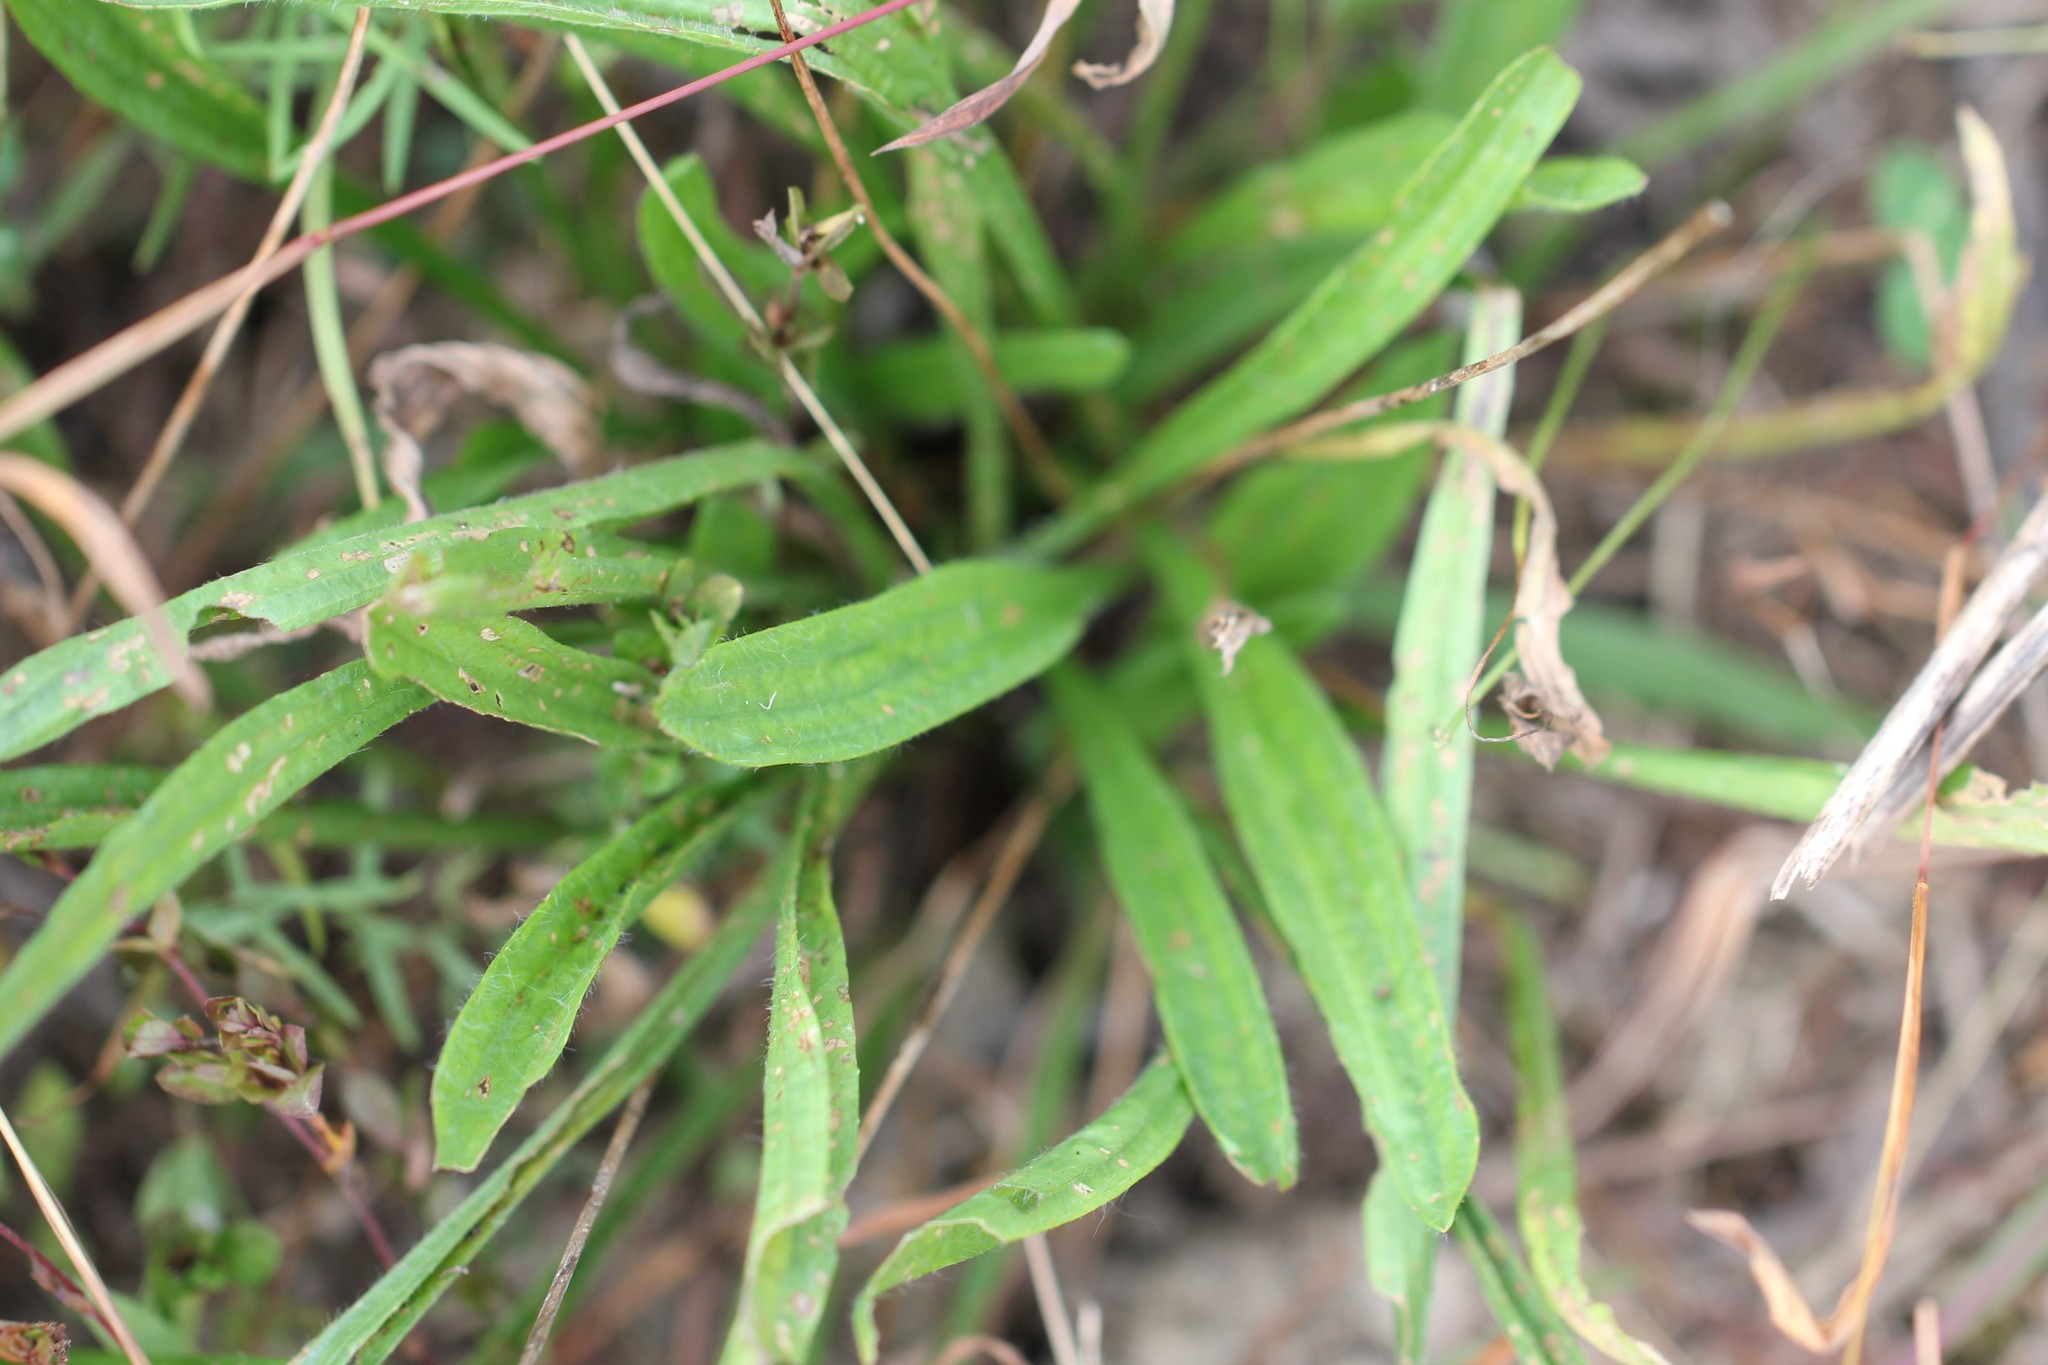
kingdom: Plantae
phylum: Tracheophyta
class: Magnoliopsida
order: Lamiales
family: Plantaginaceae
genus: Plantago
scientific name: Plantago lanceolata
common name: Ribwort plantain
